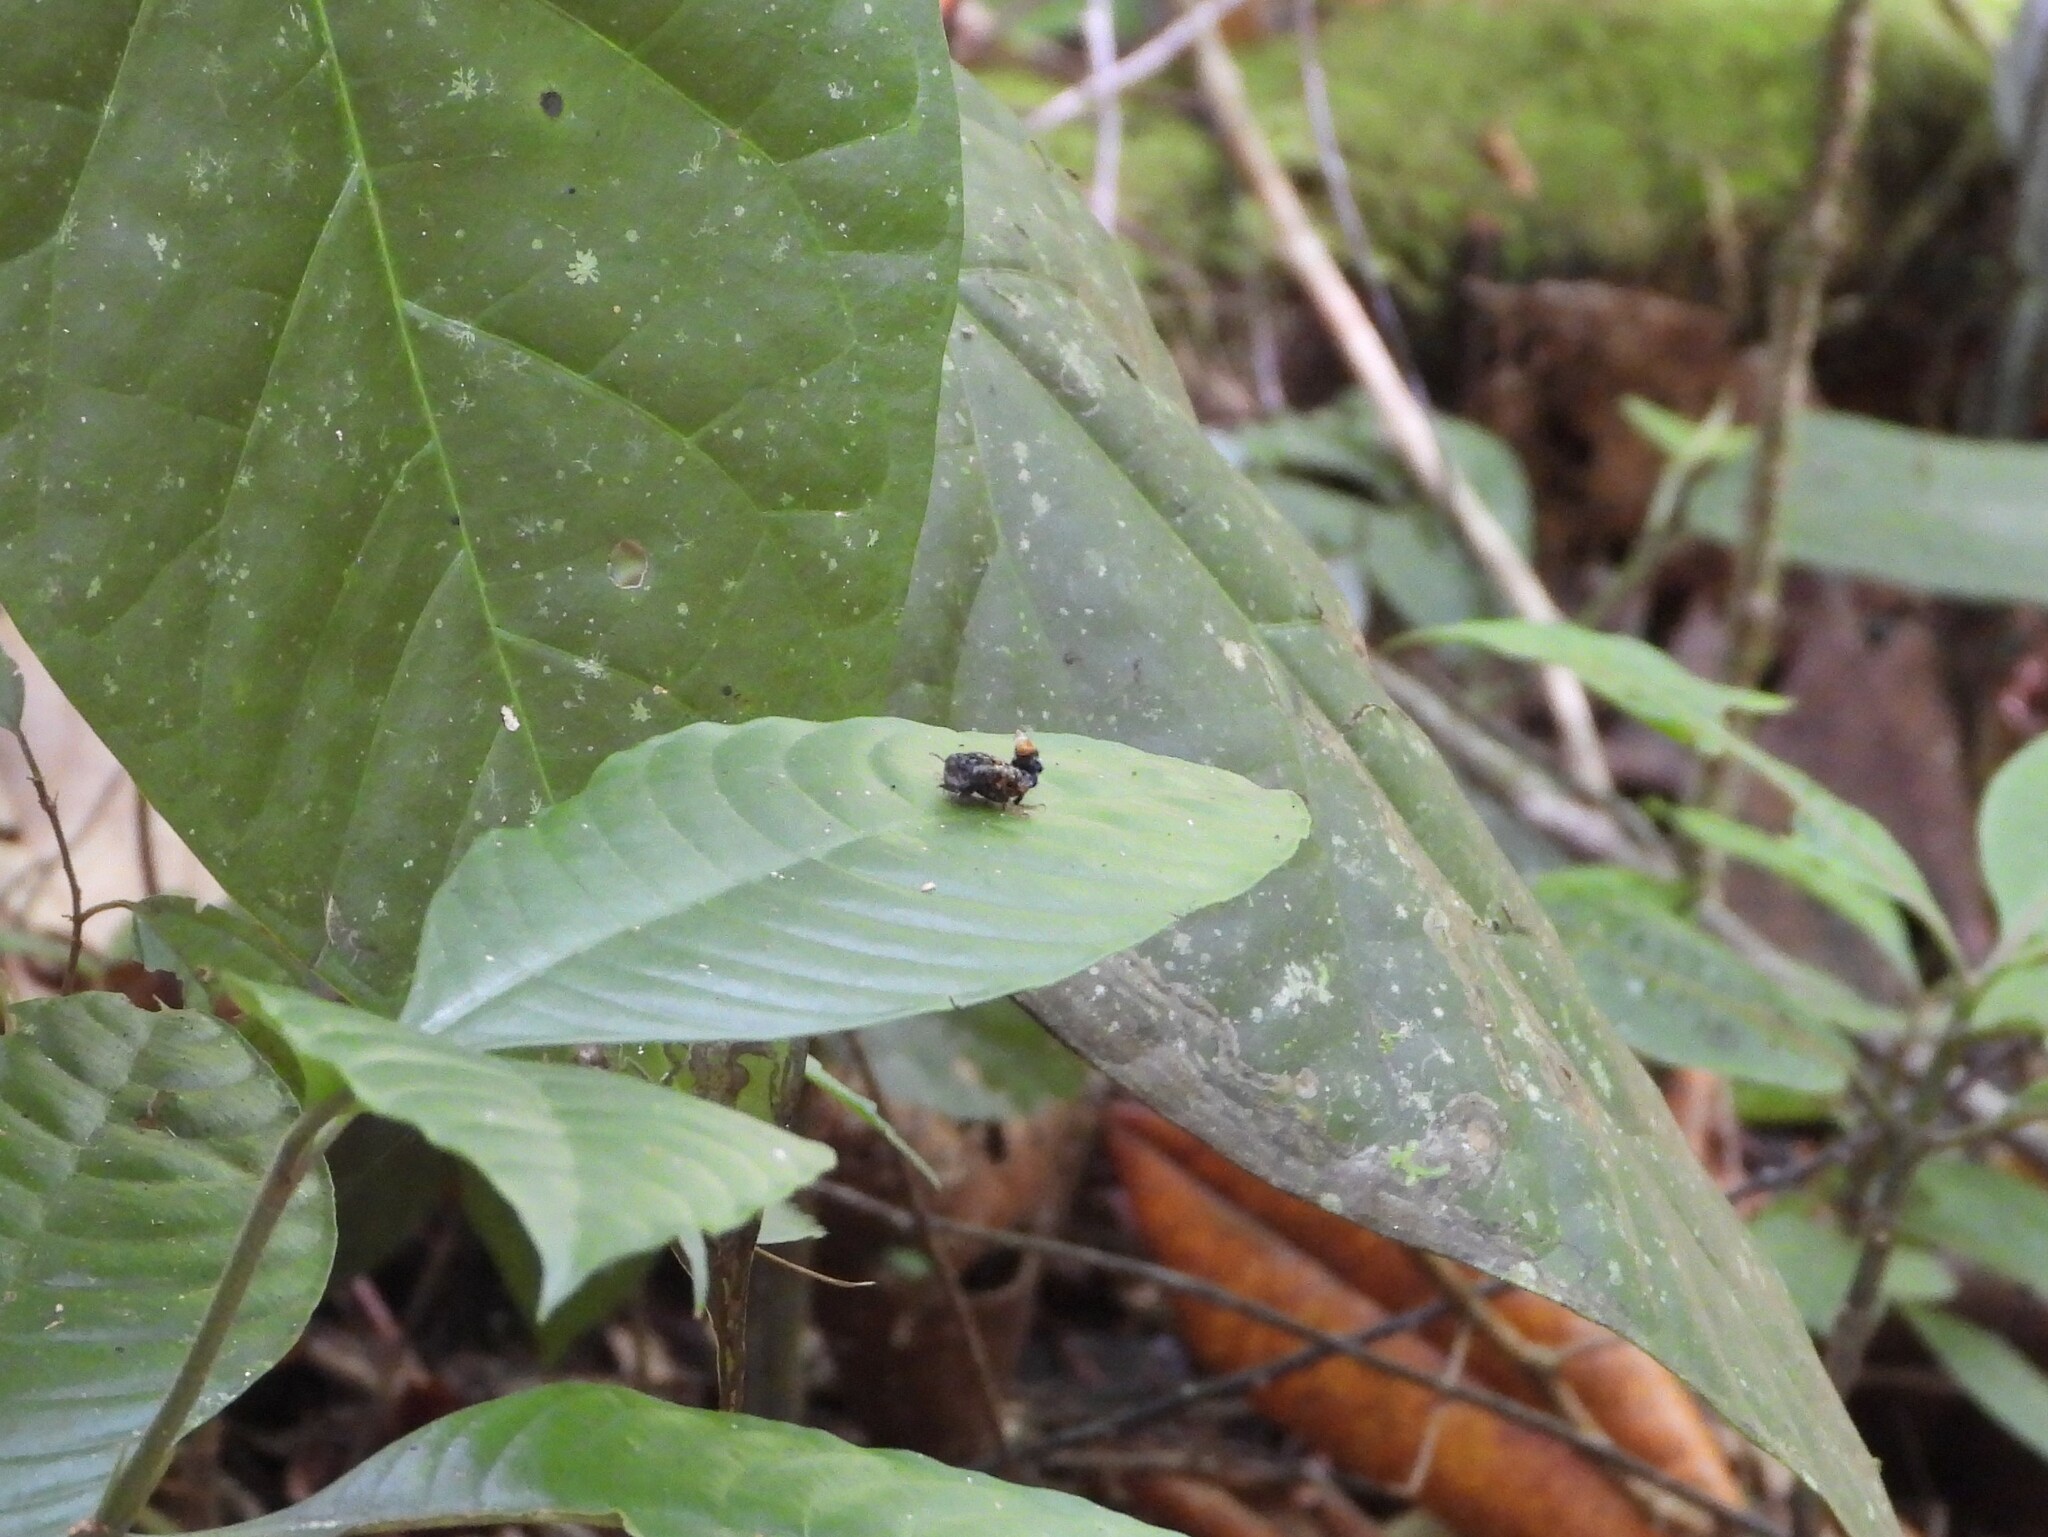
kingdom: Animalia
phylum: Arthropoda
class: Insecta
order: Coleoptera
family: Staphylinidae
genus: Leistotrophus
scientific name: Leistotrophus versicolor
